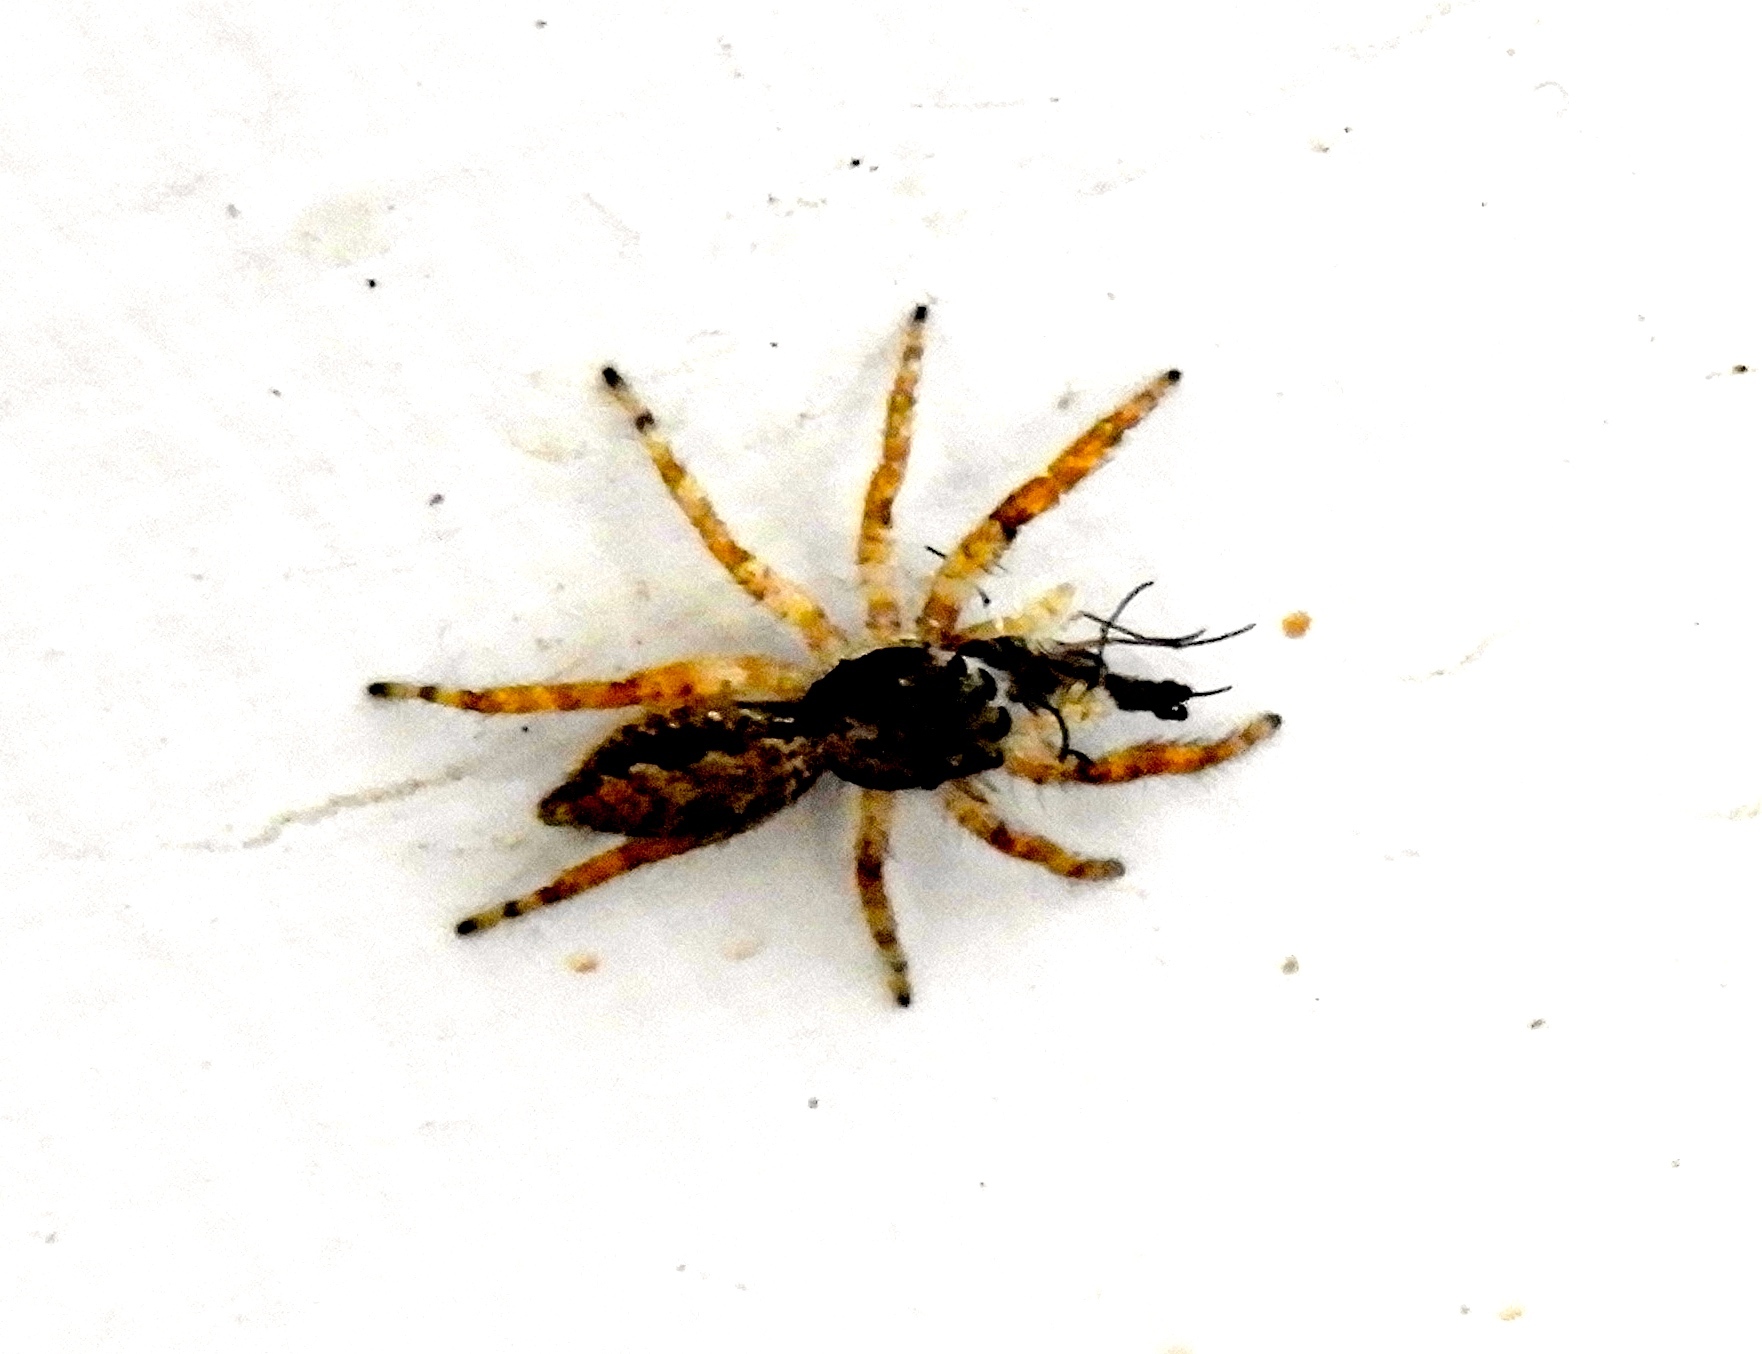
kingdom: Animalia
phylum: Arthropoda
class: Arachnida
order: Araneae
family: Salticidae
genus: Menemerus
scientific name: Menemerus bivittatus
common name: Gray wall jumper
